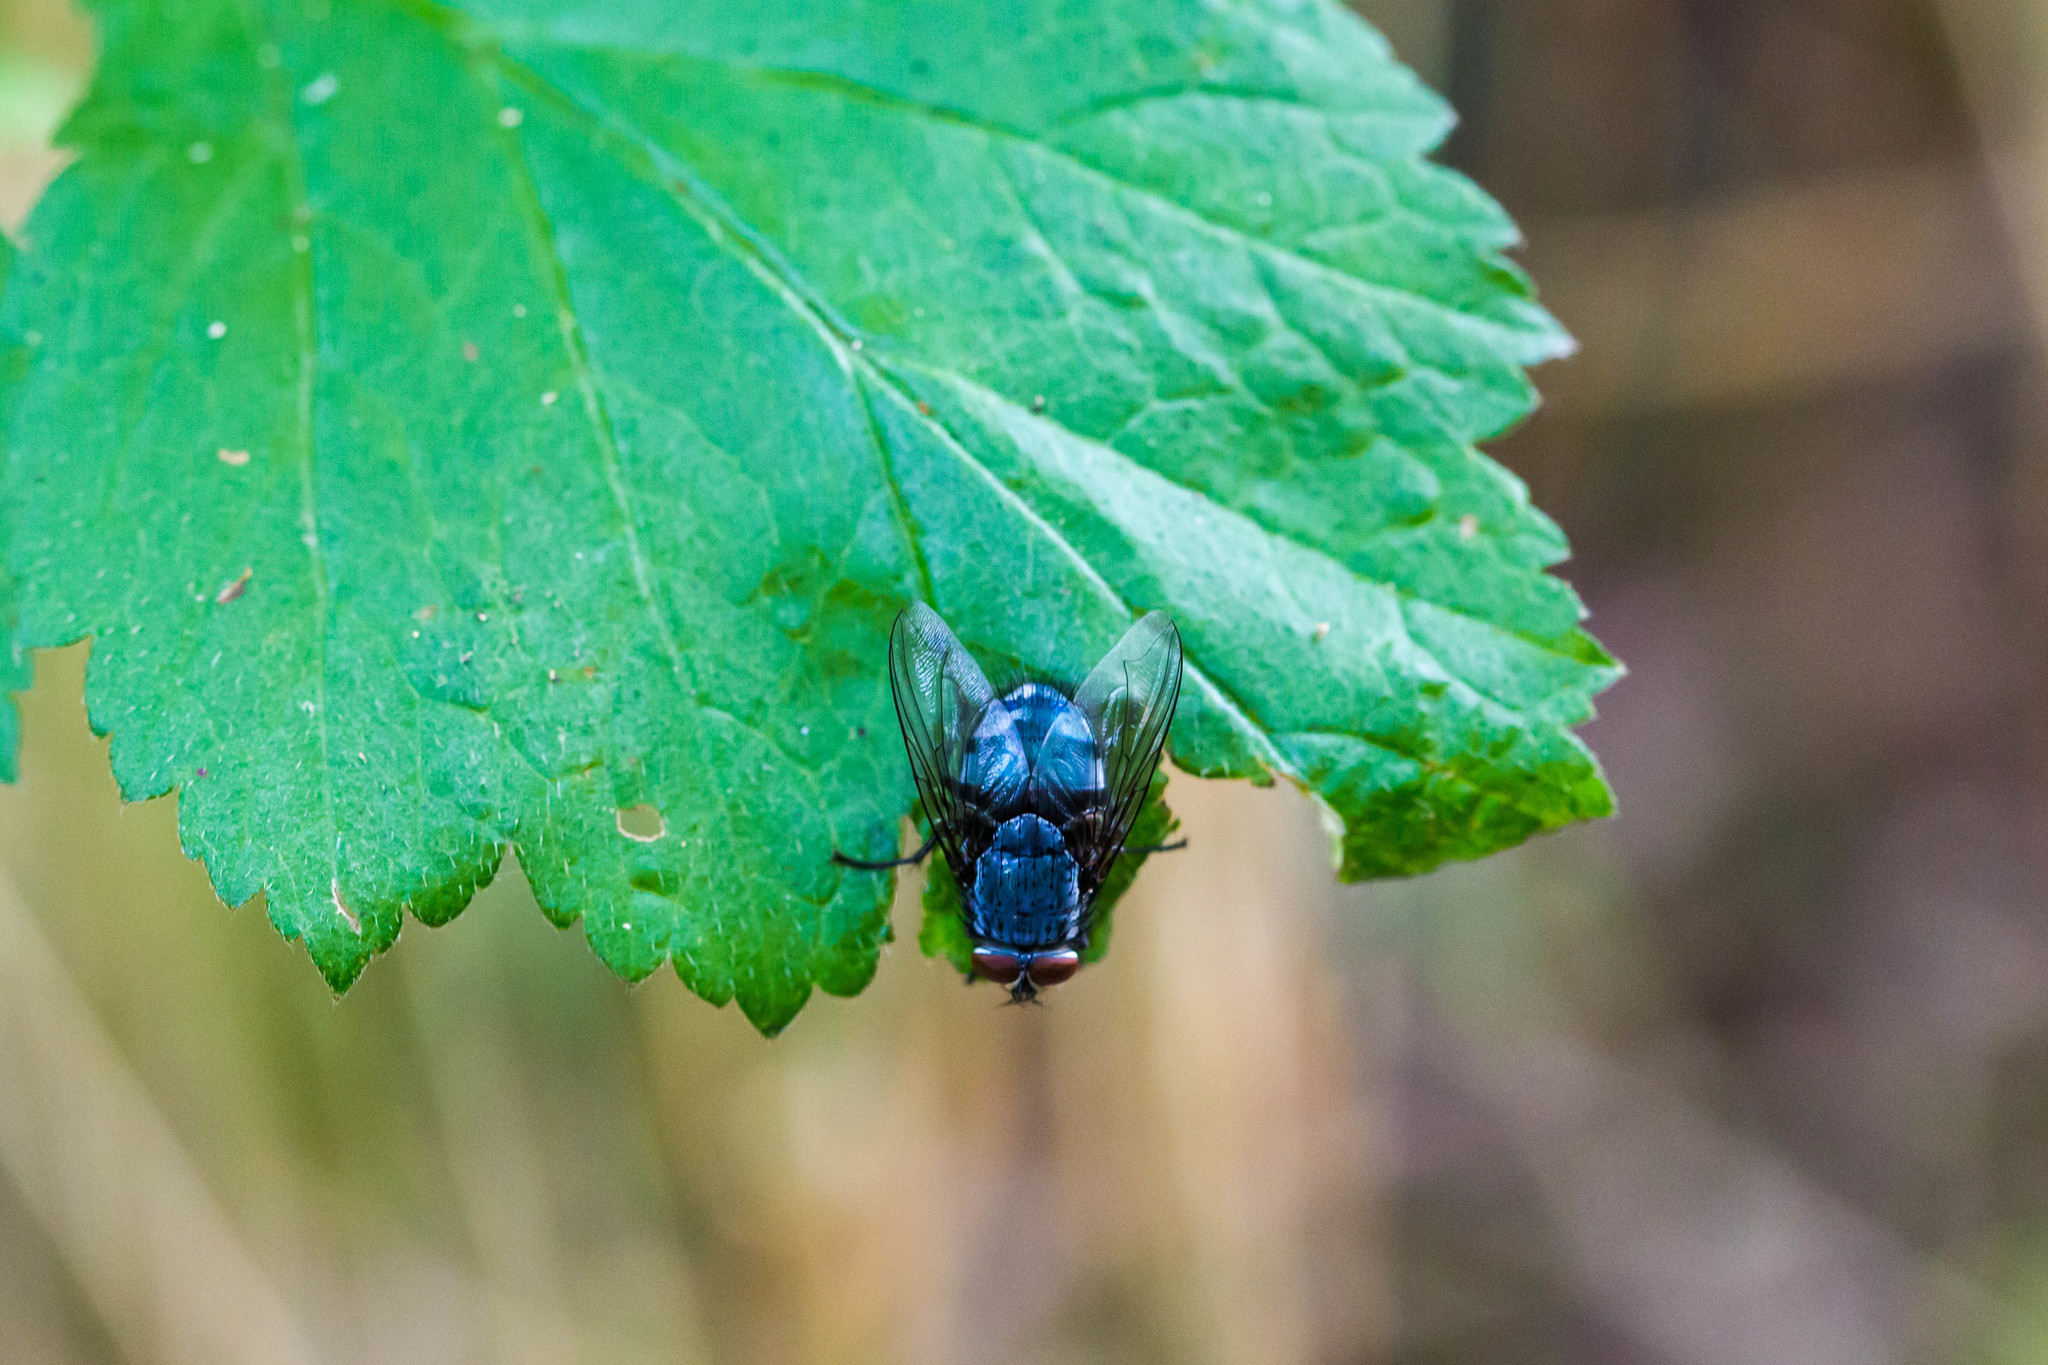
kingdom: Animalia
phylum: Arthropoda
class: Insecta
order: Diptera
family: Calliphoridae
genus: Calliphora
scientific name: Calliphora vicina
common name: Common blow flie
